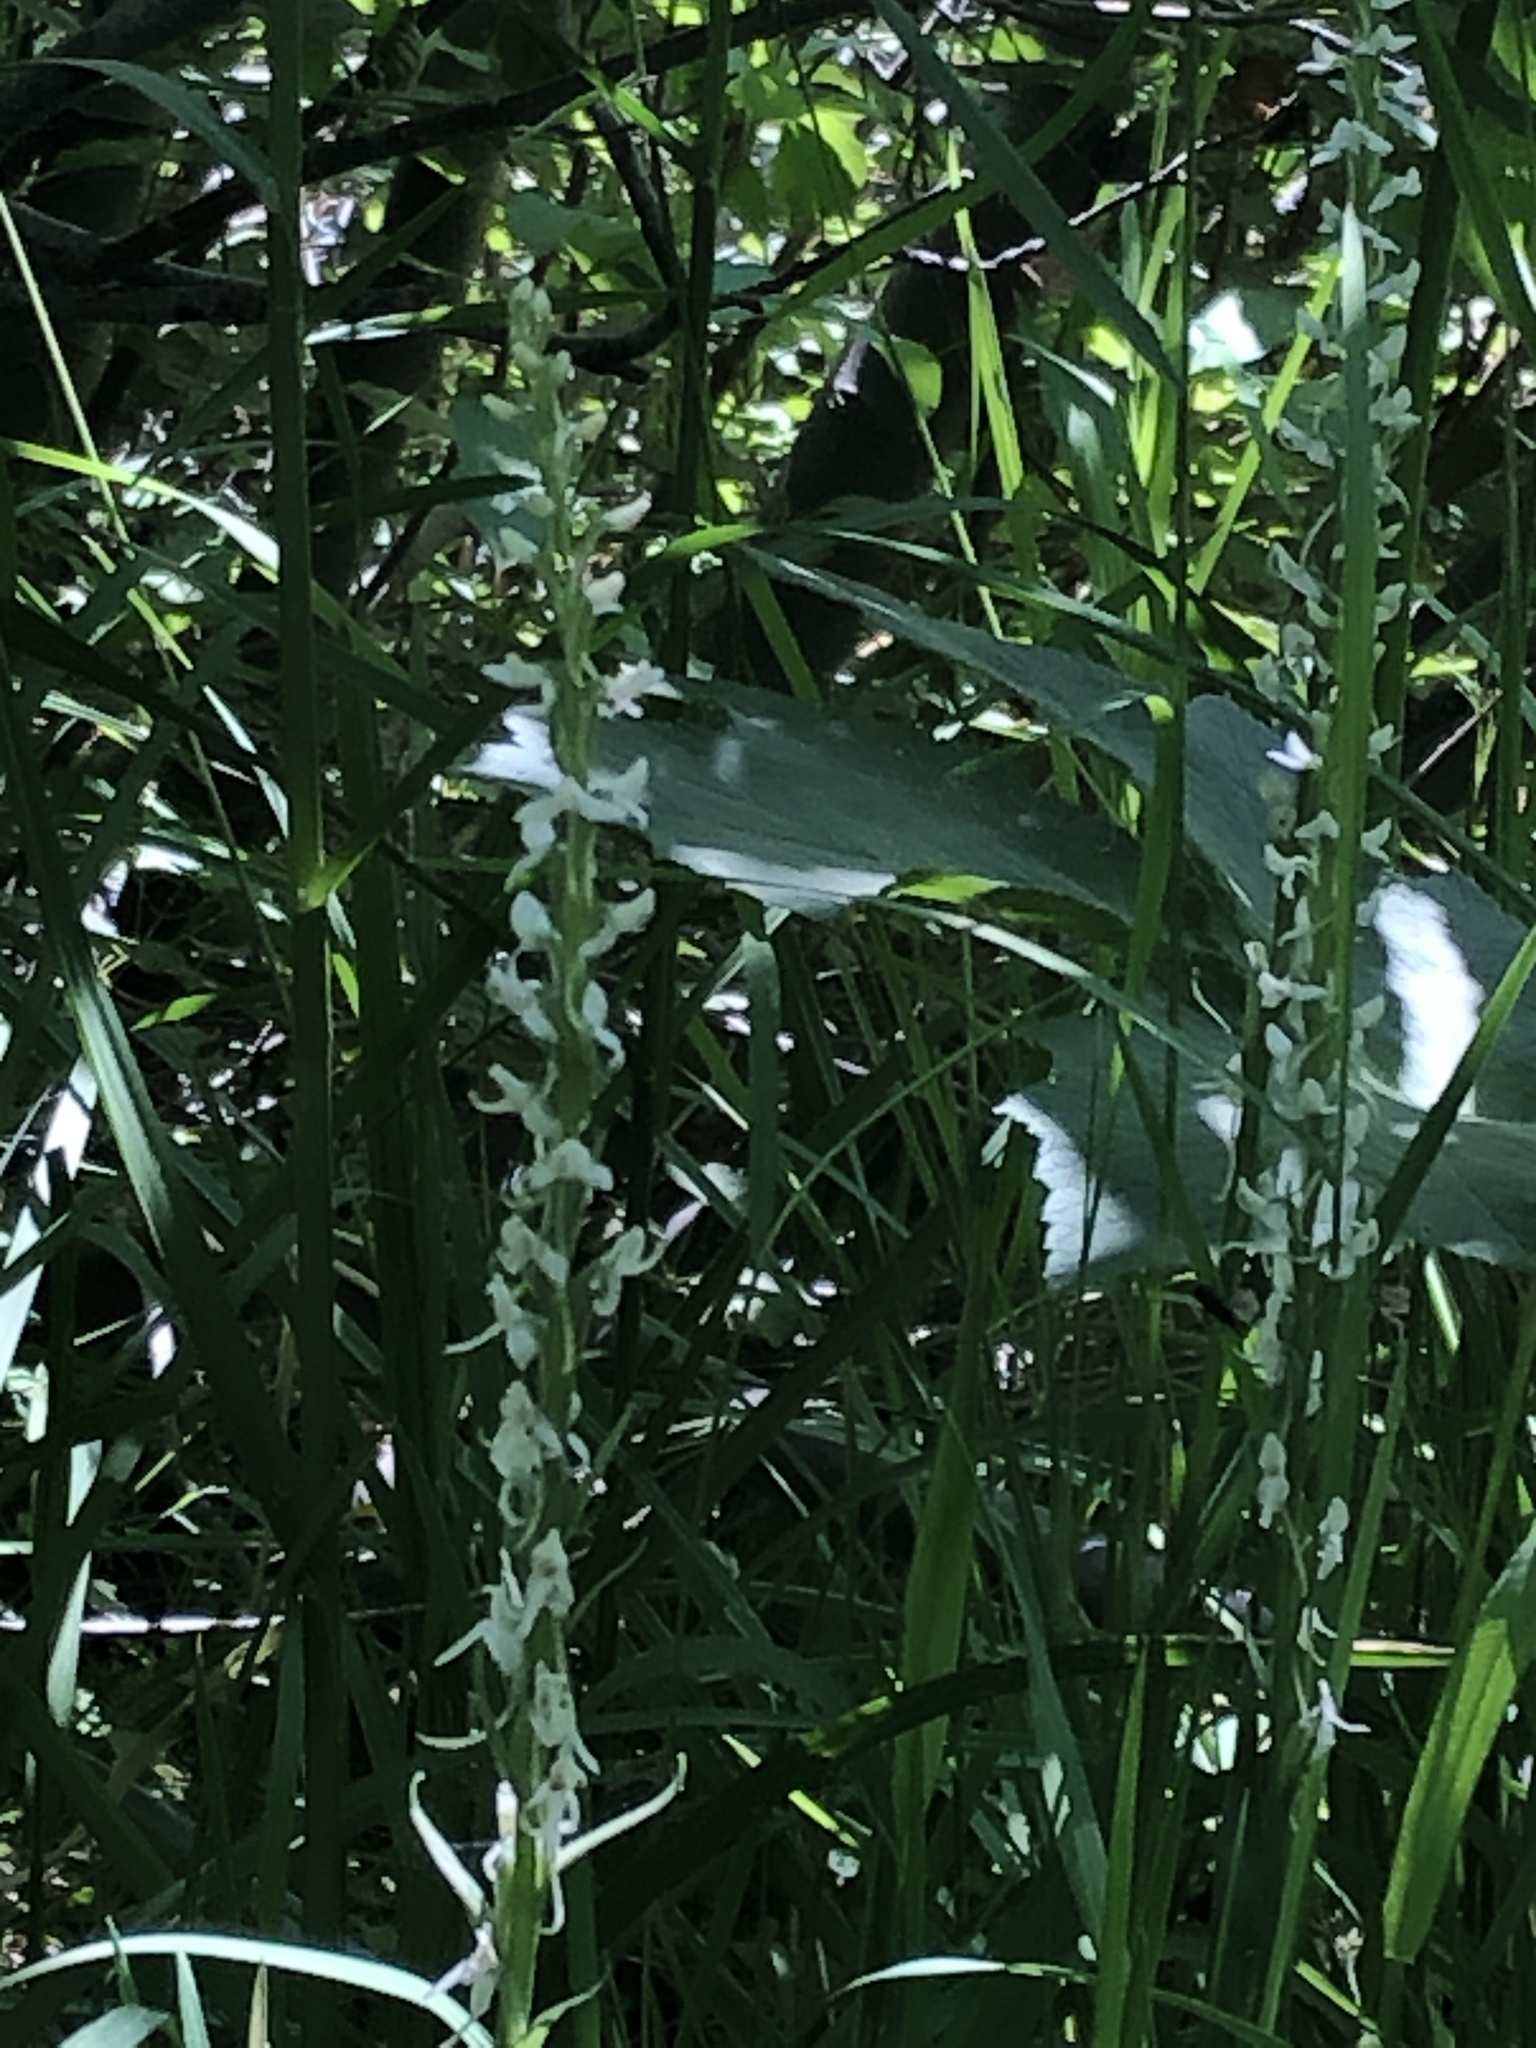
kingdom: Plantae
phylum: Tracheophyta
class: Liliopsida
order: Asparagales
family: Orchidaceae
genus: Platanthera
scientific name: Platanthera dilatata
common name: Bog candles
